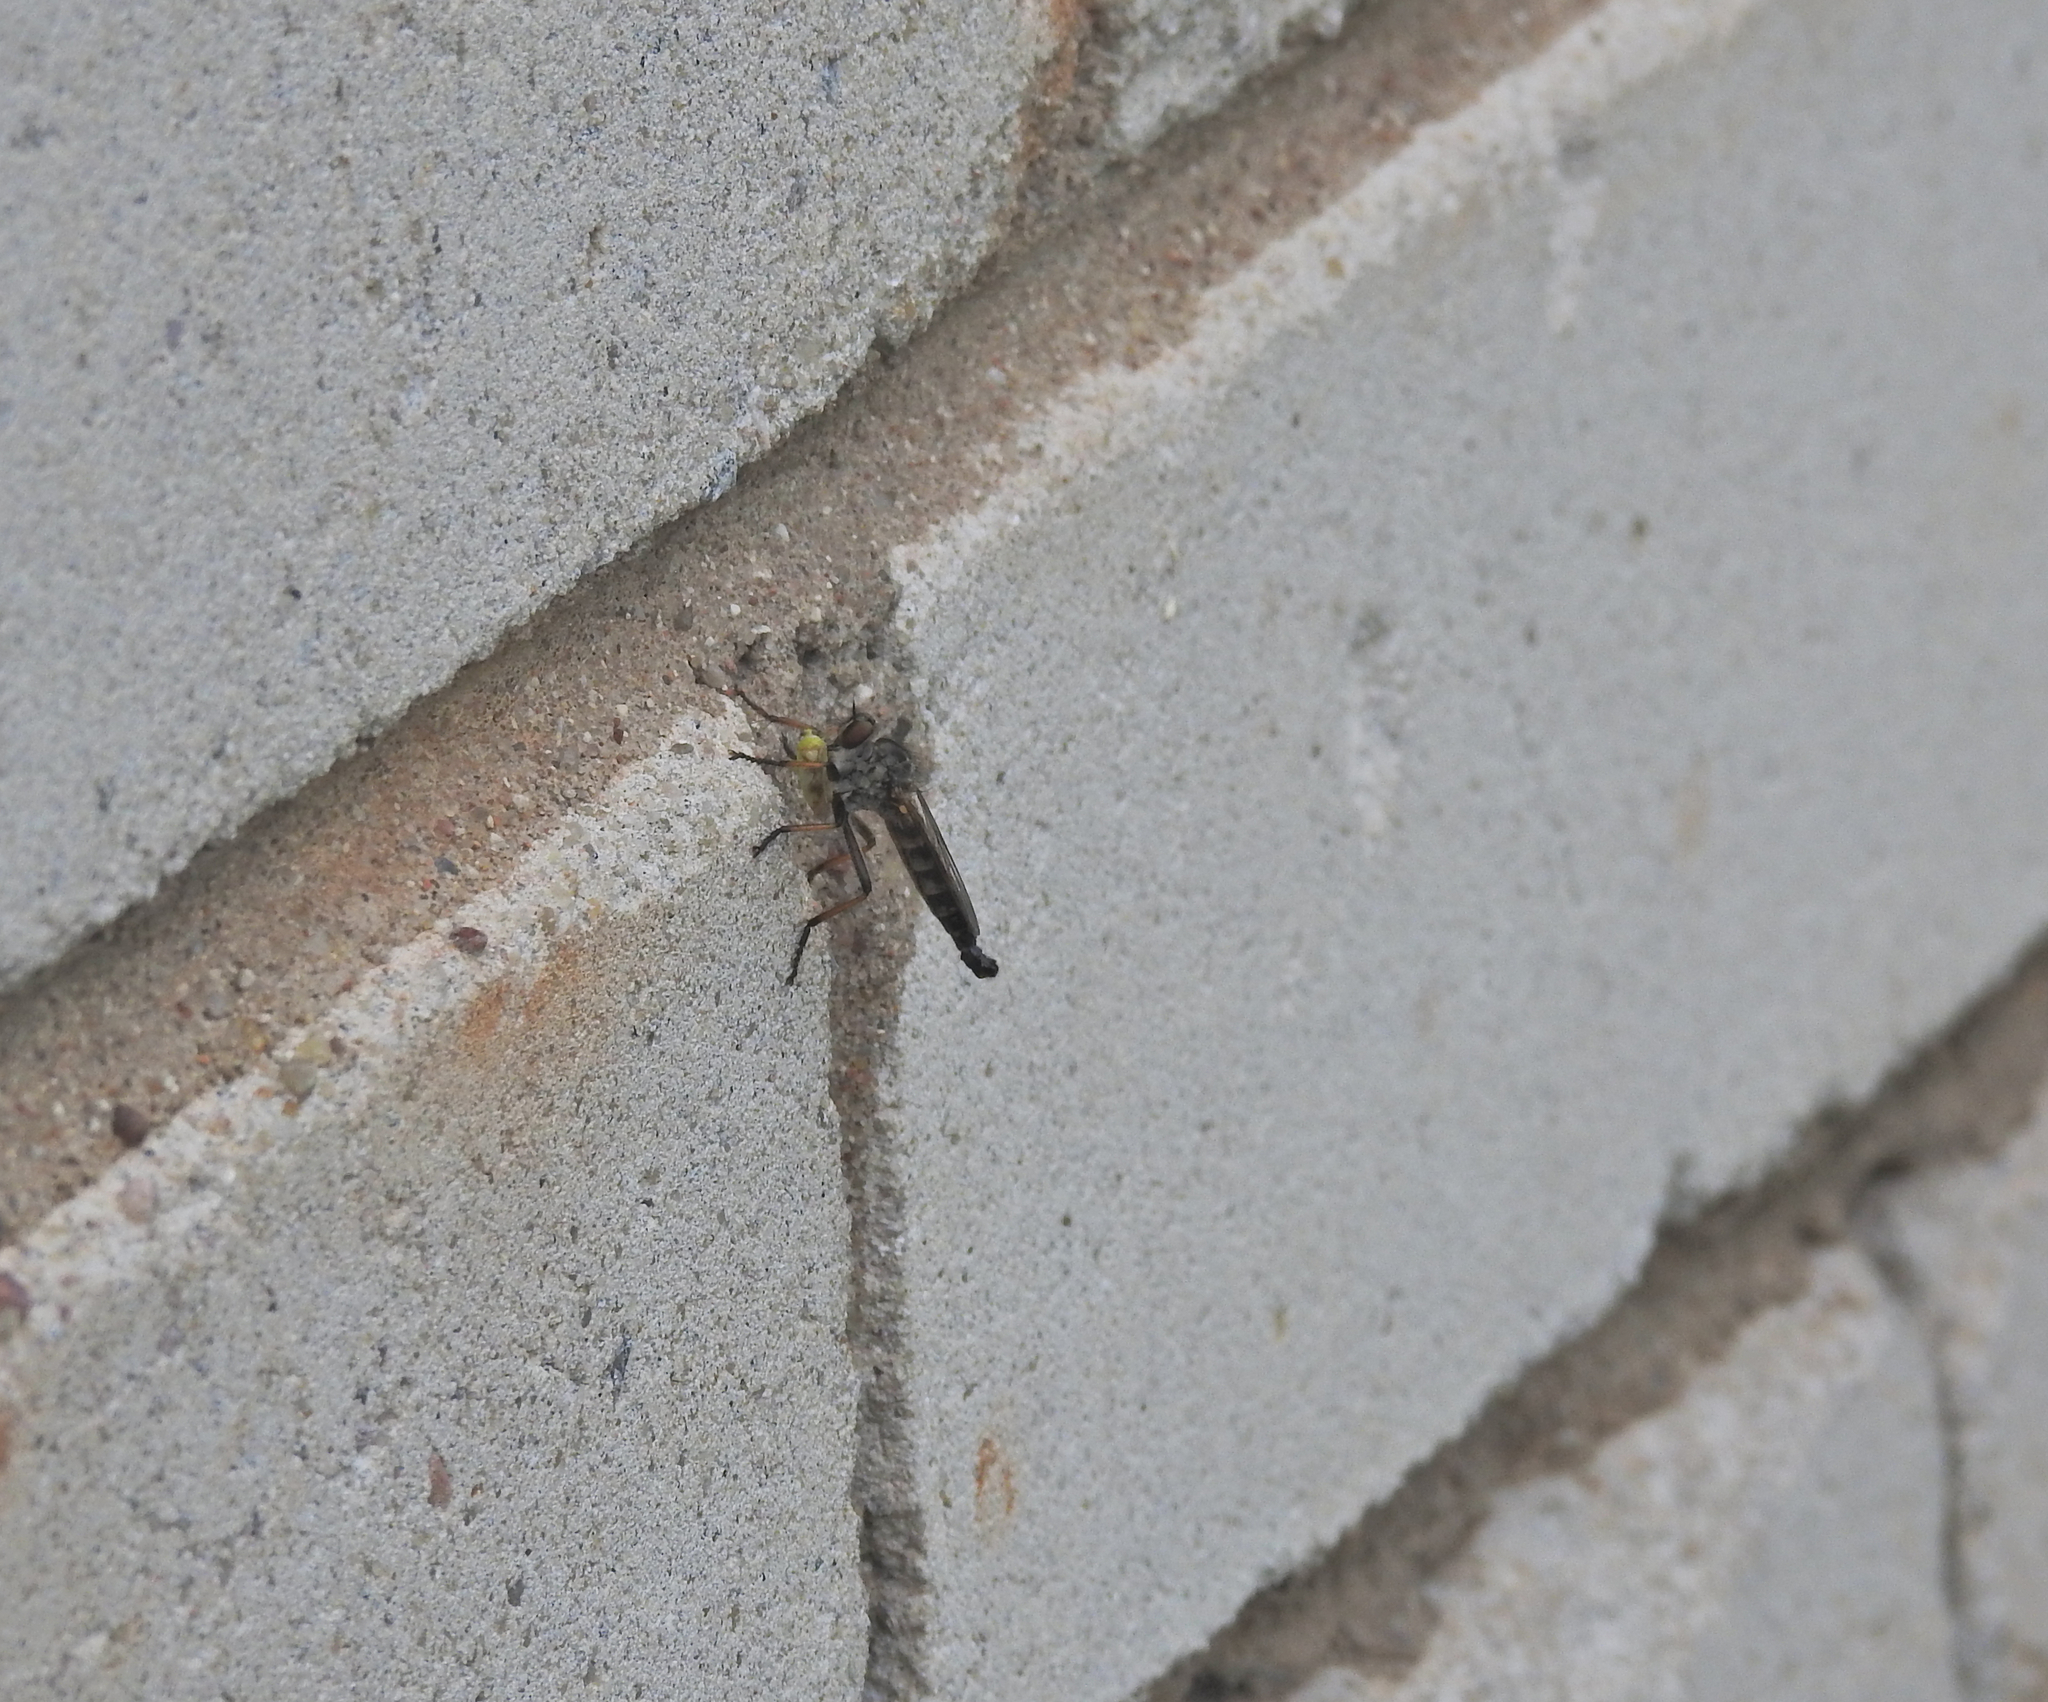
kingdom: Animalia
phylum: Arthropoda
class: Insecta
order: Diptera
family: Asilidae
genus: Neoitamus
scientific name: Neoitamus
